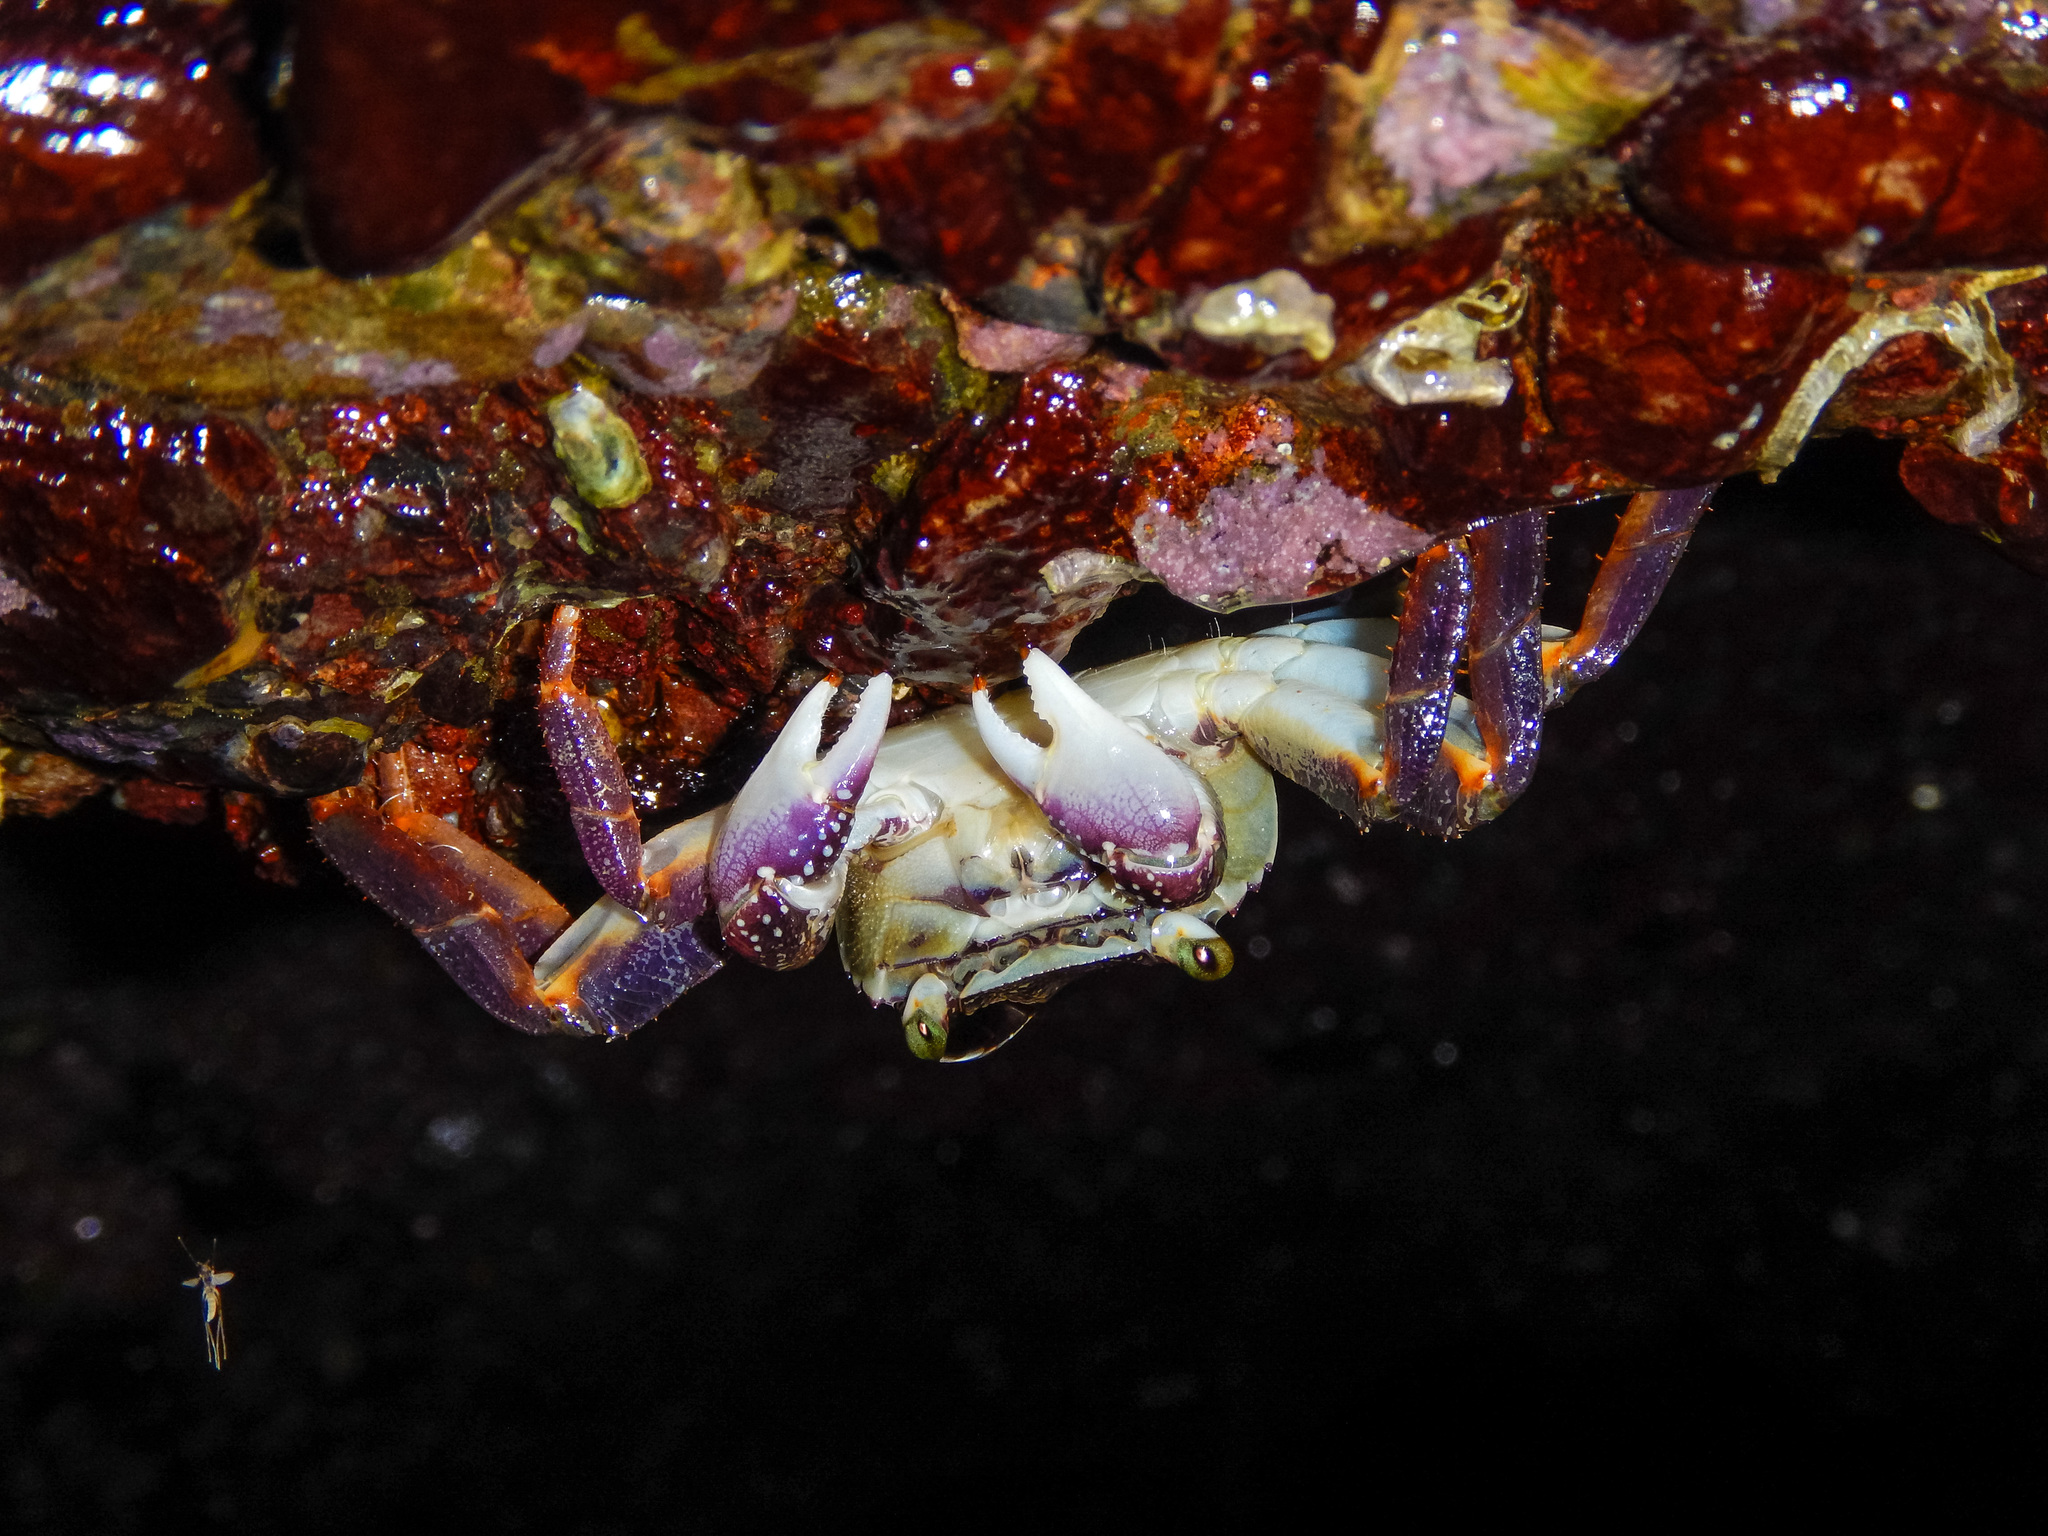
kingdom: Animalia
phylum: Arthropoda
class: Malacostraca
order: Decapoda
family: Grapsidae
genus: Leptograpsus
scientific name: Leptograpsus variegatus
